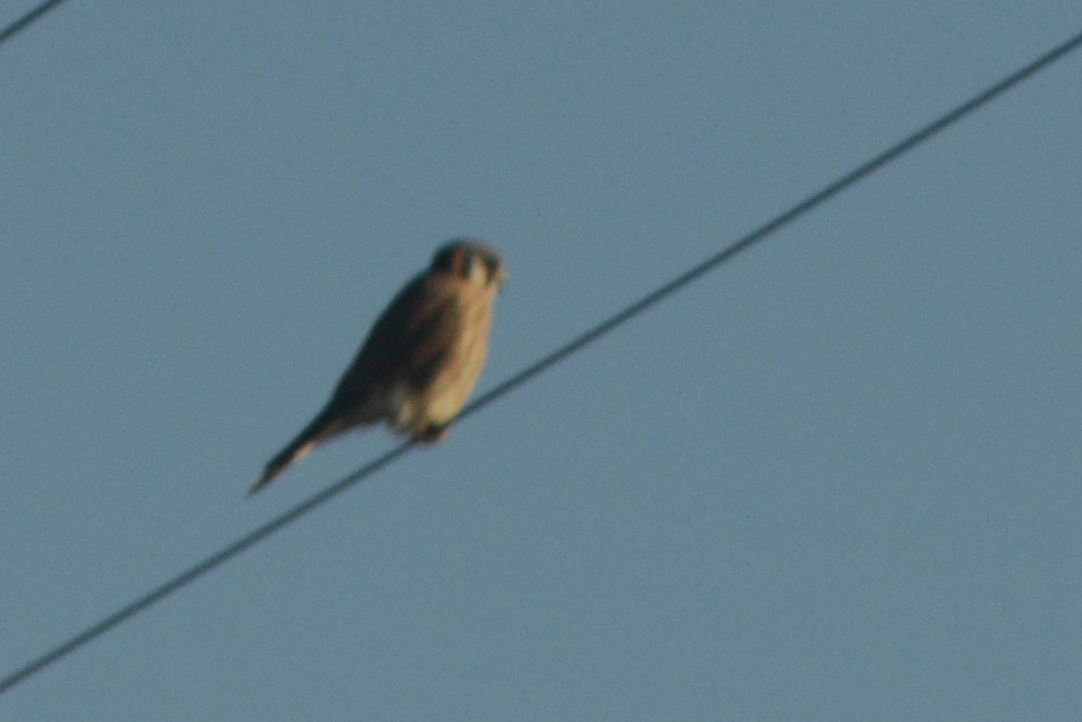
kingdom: Animalia
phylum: Chordata
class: Aves
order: Falconiformes
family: Falconidae
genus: Falco
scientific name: Falco sparverius
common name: American kestrel
